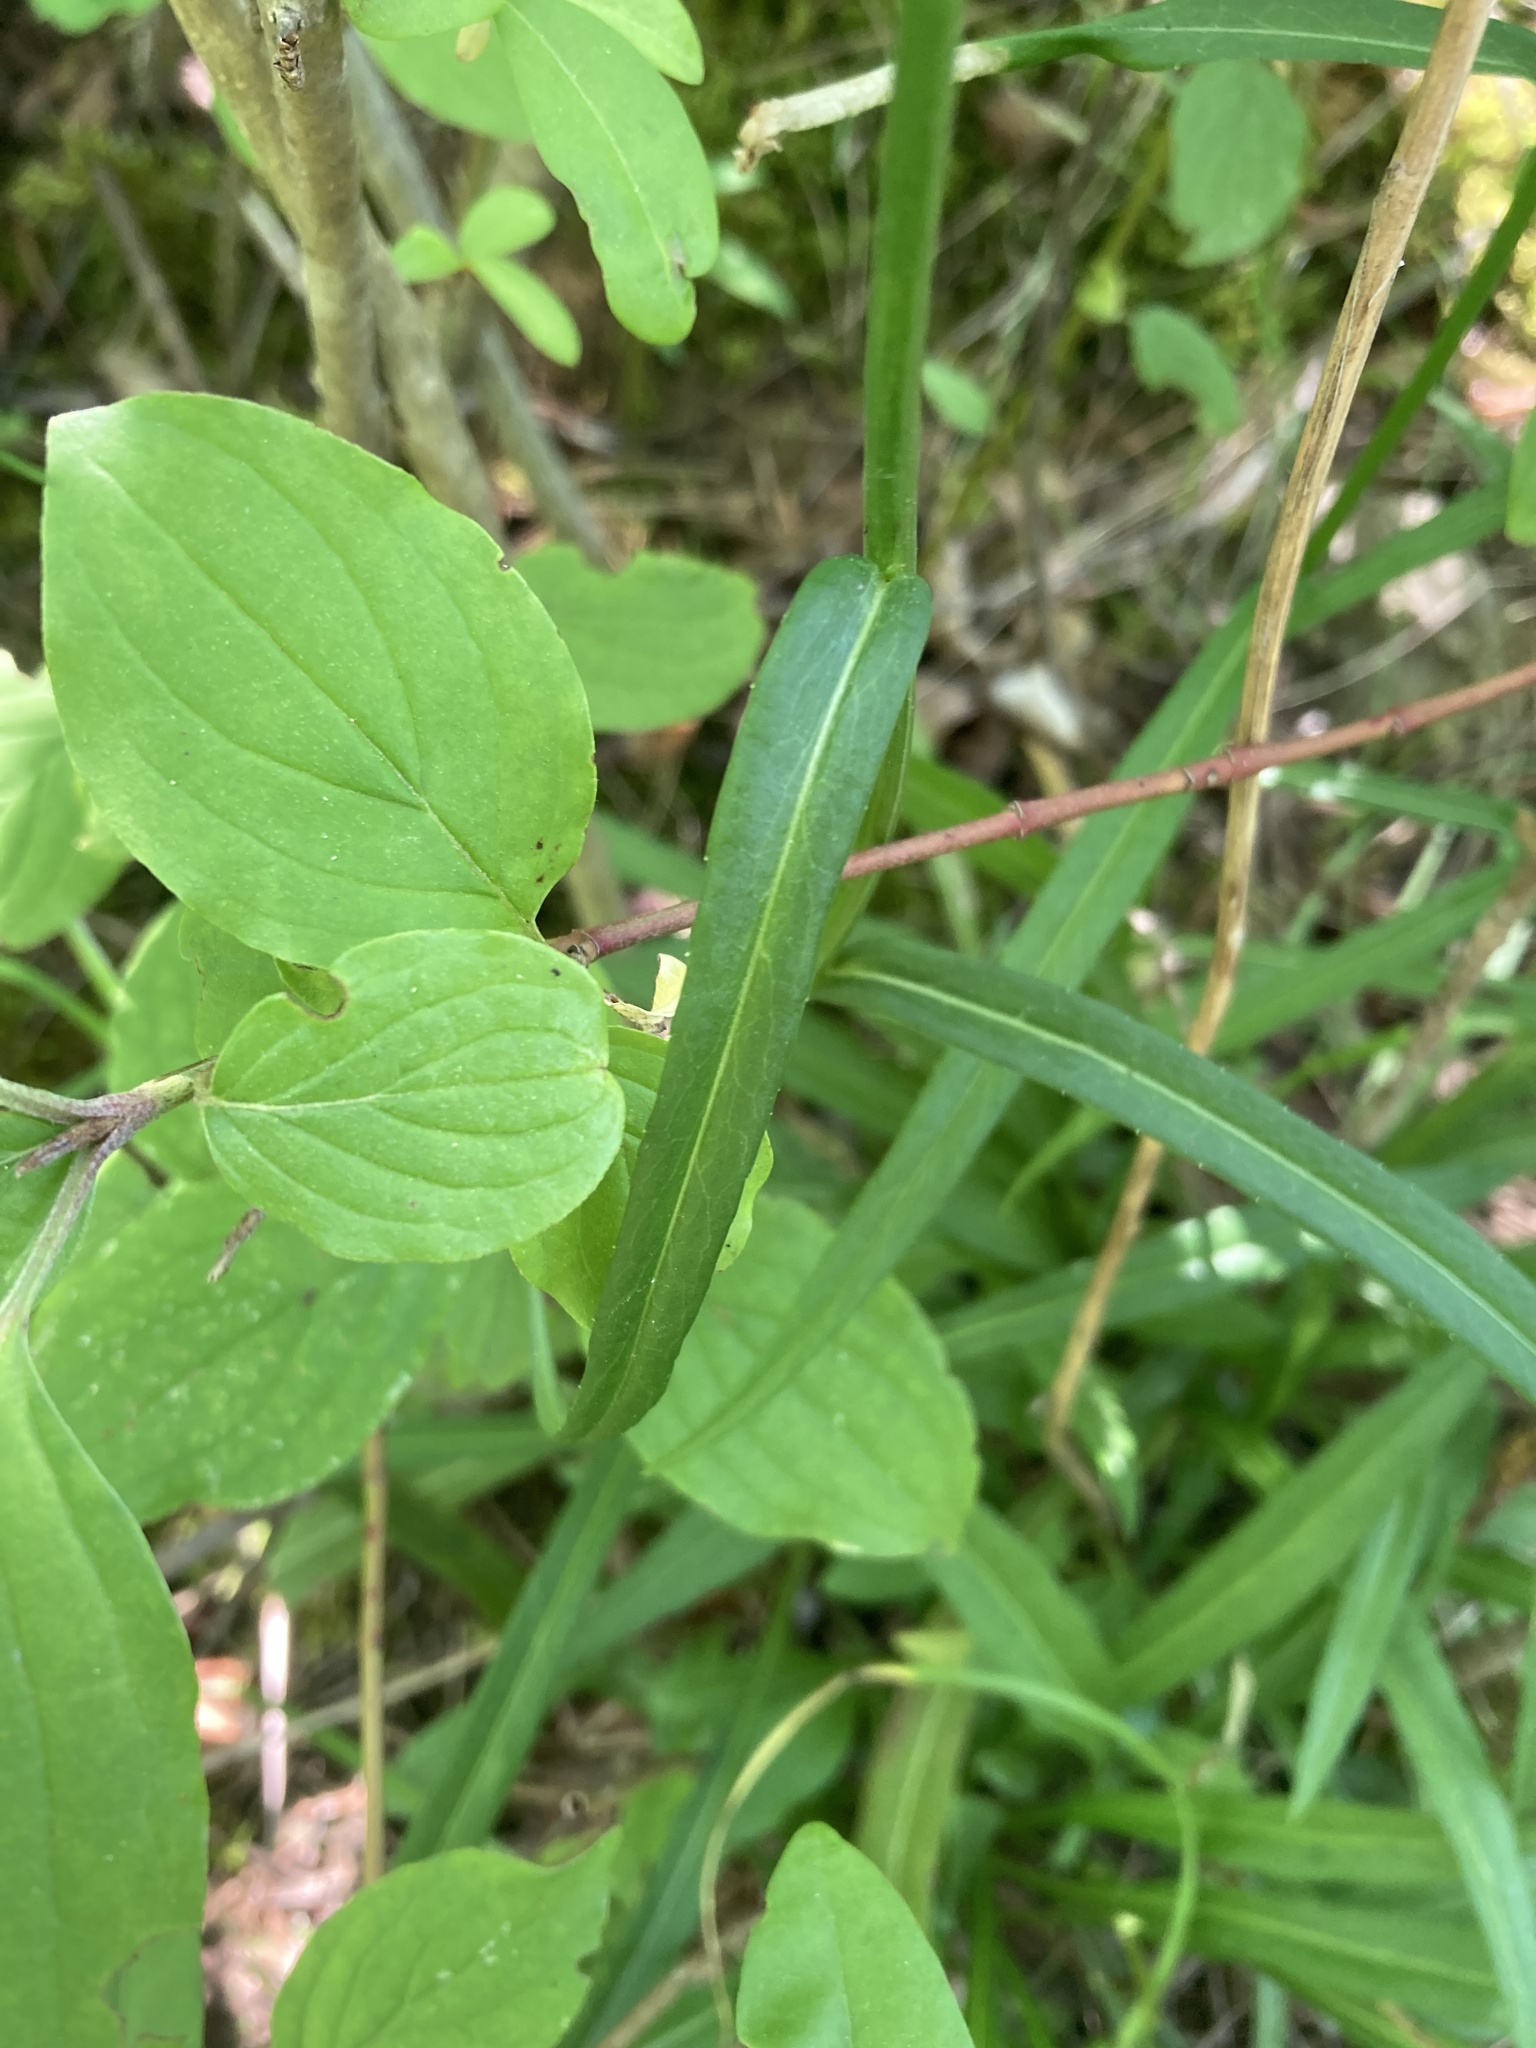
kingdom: Plantae
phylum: Tracheophyta
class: Magnoliopsida
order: Asterales
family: Campanulaceae
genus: Campanula
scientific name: Campanula persicifolia
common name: Peach-leaved bellflower
